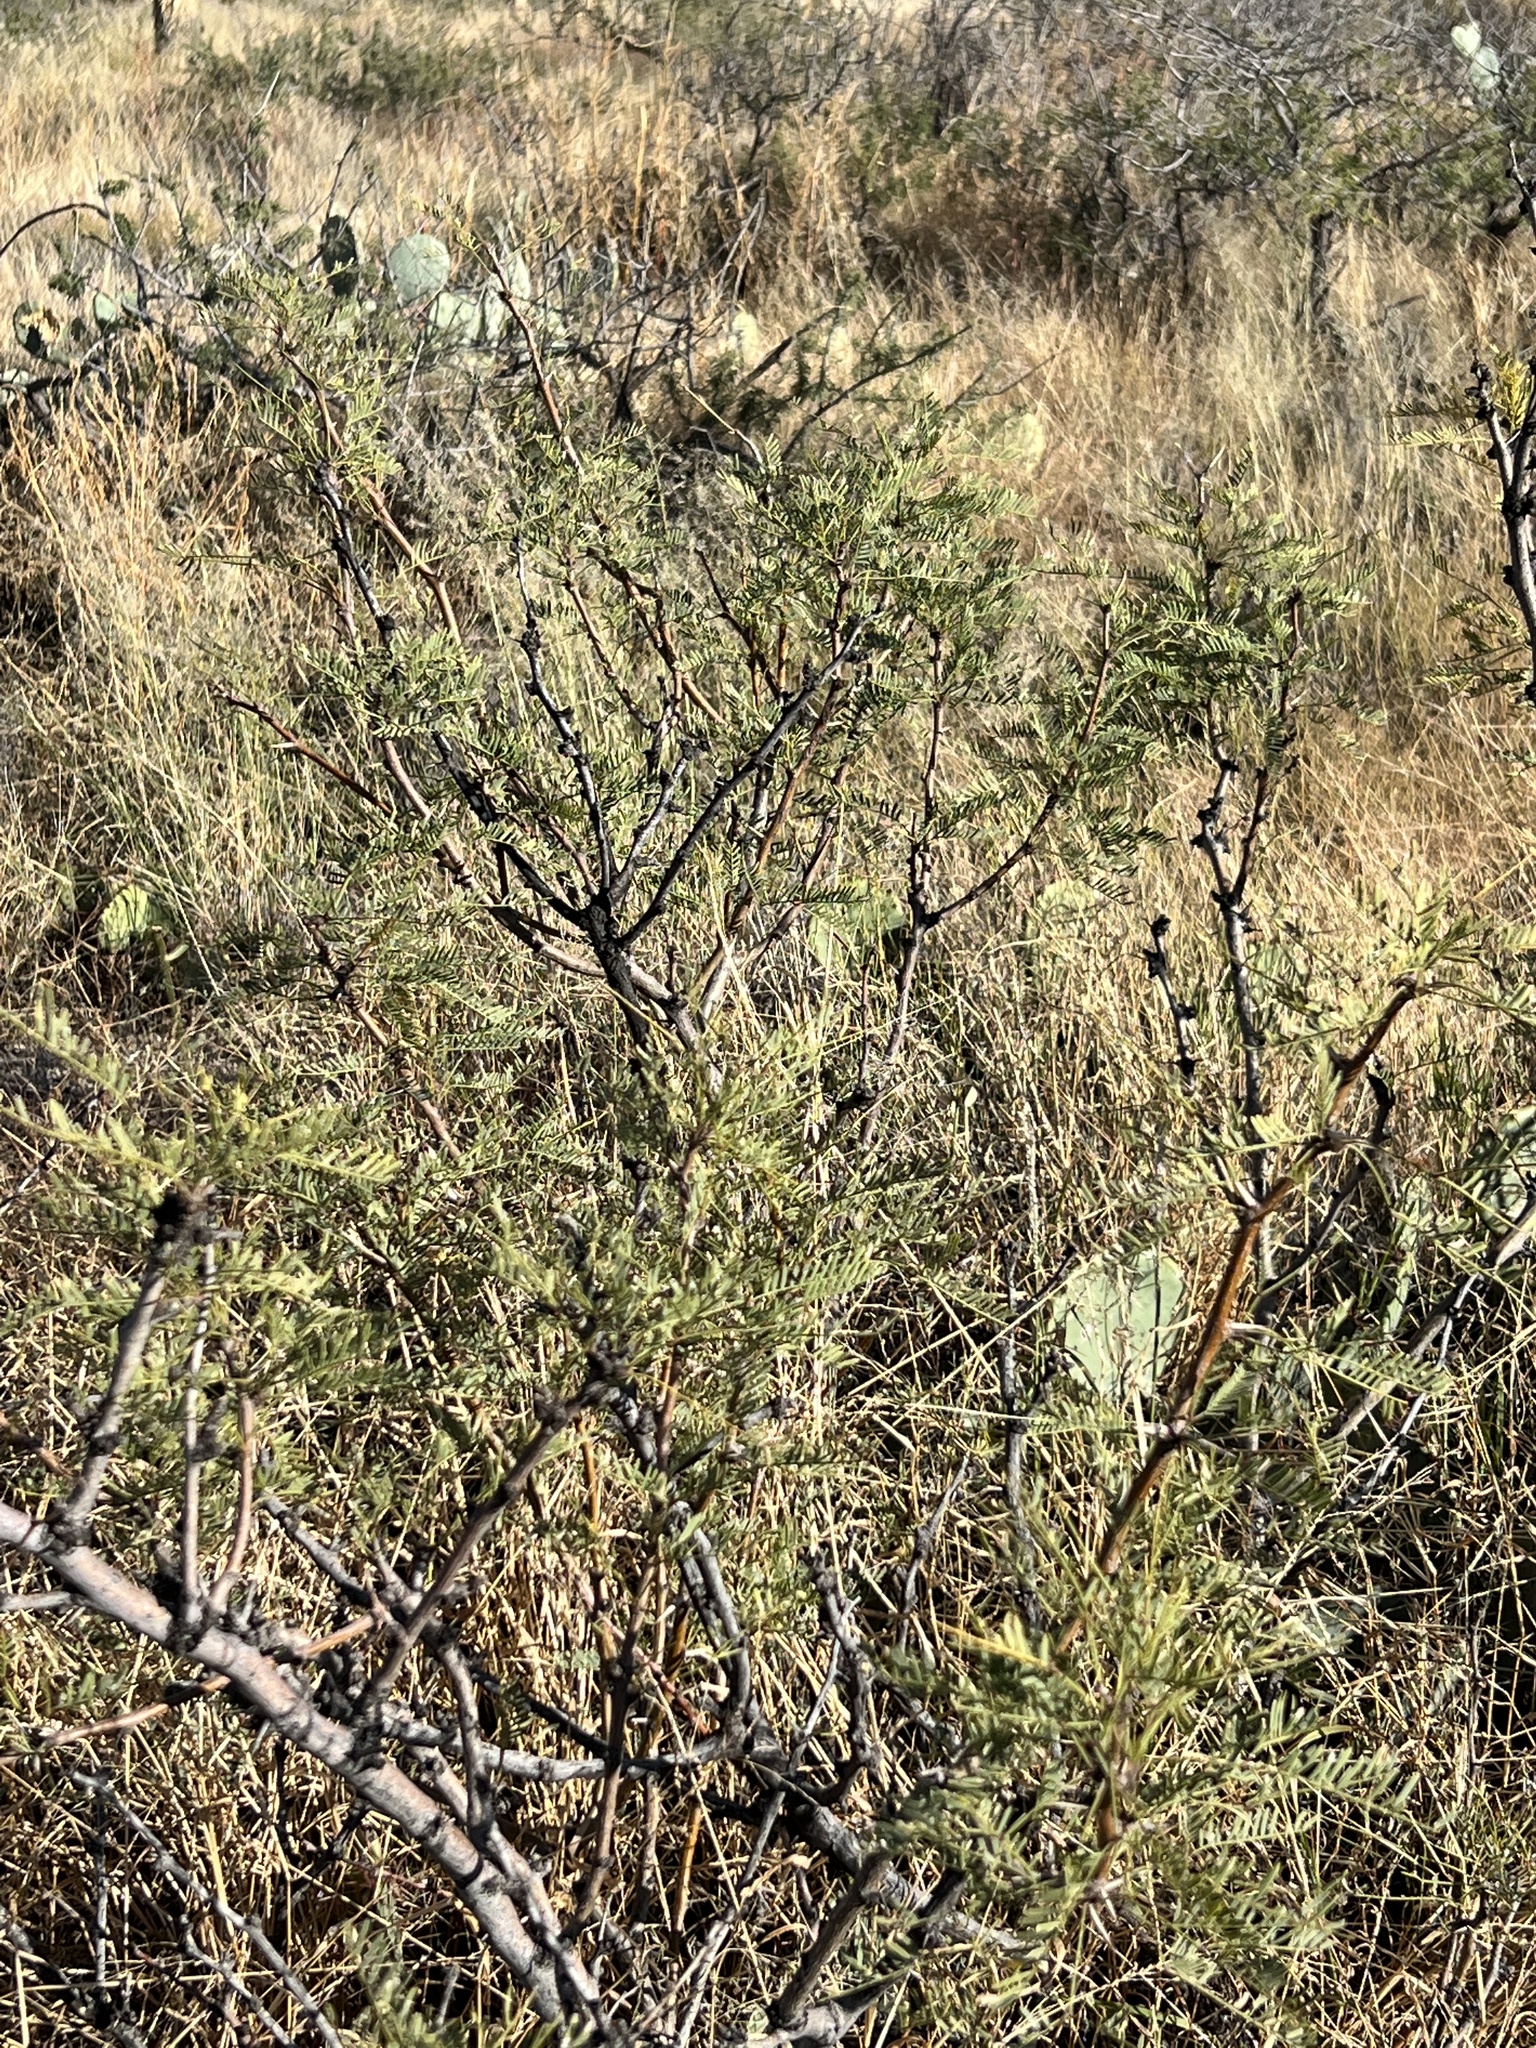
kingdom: Plantae
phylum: Tracheophyta
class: Magnoliopsida
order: Fabales
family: Fabaceae
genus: Prosopis
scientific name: Prosopis pubescens
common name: Screw-bean
